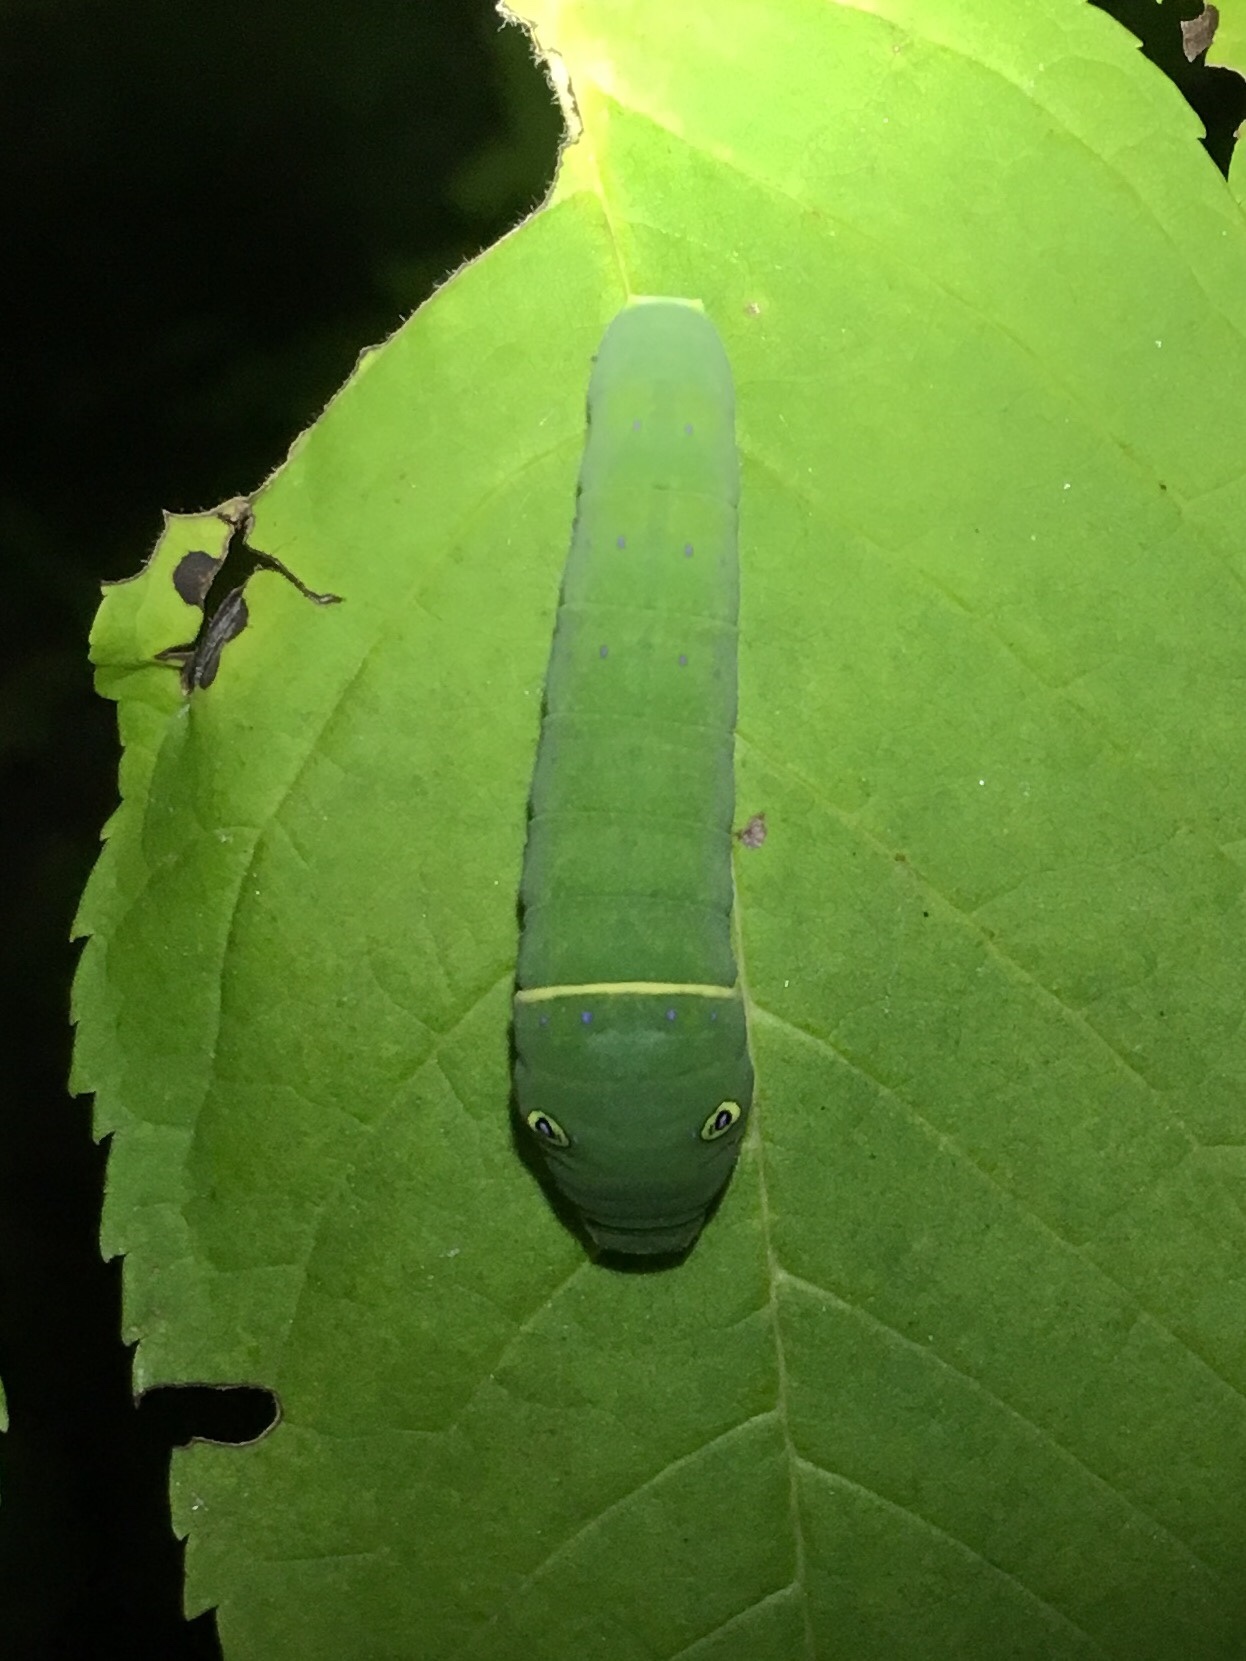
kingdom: Animalia
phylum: Arthropoda
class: Insecta
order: Lepidoptera
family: Papilionidae
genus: Papilio
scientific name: Papilio
